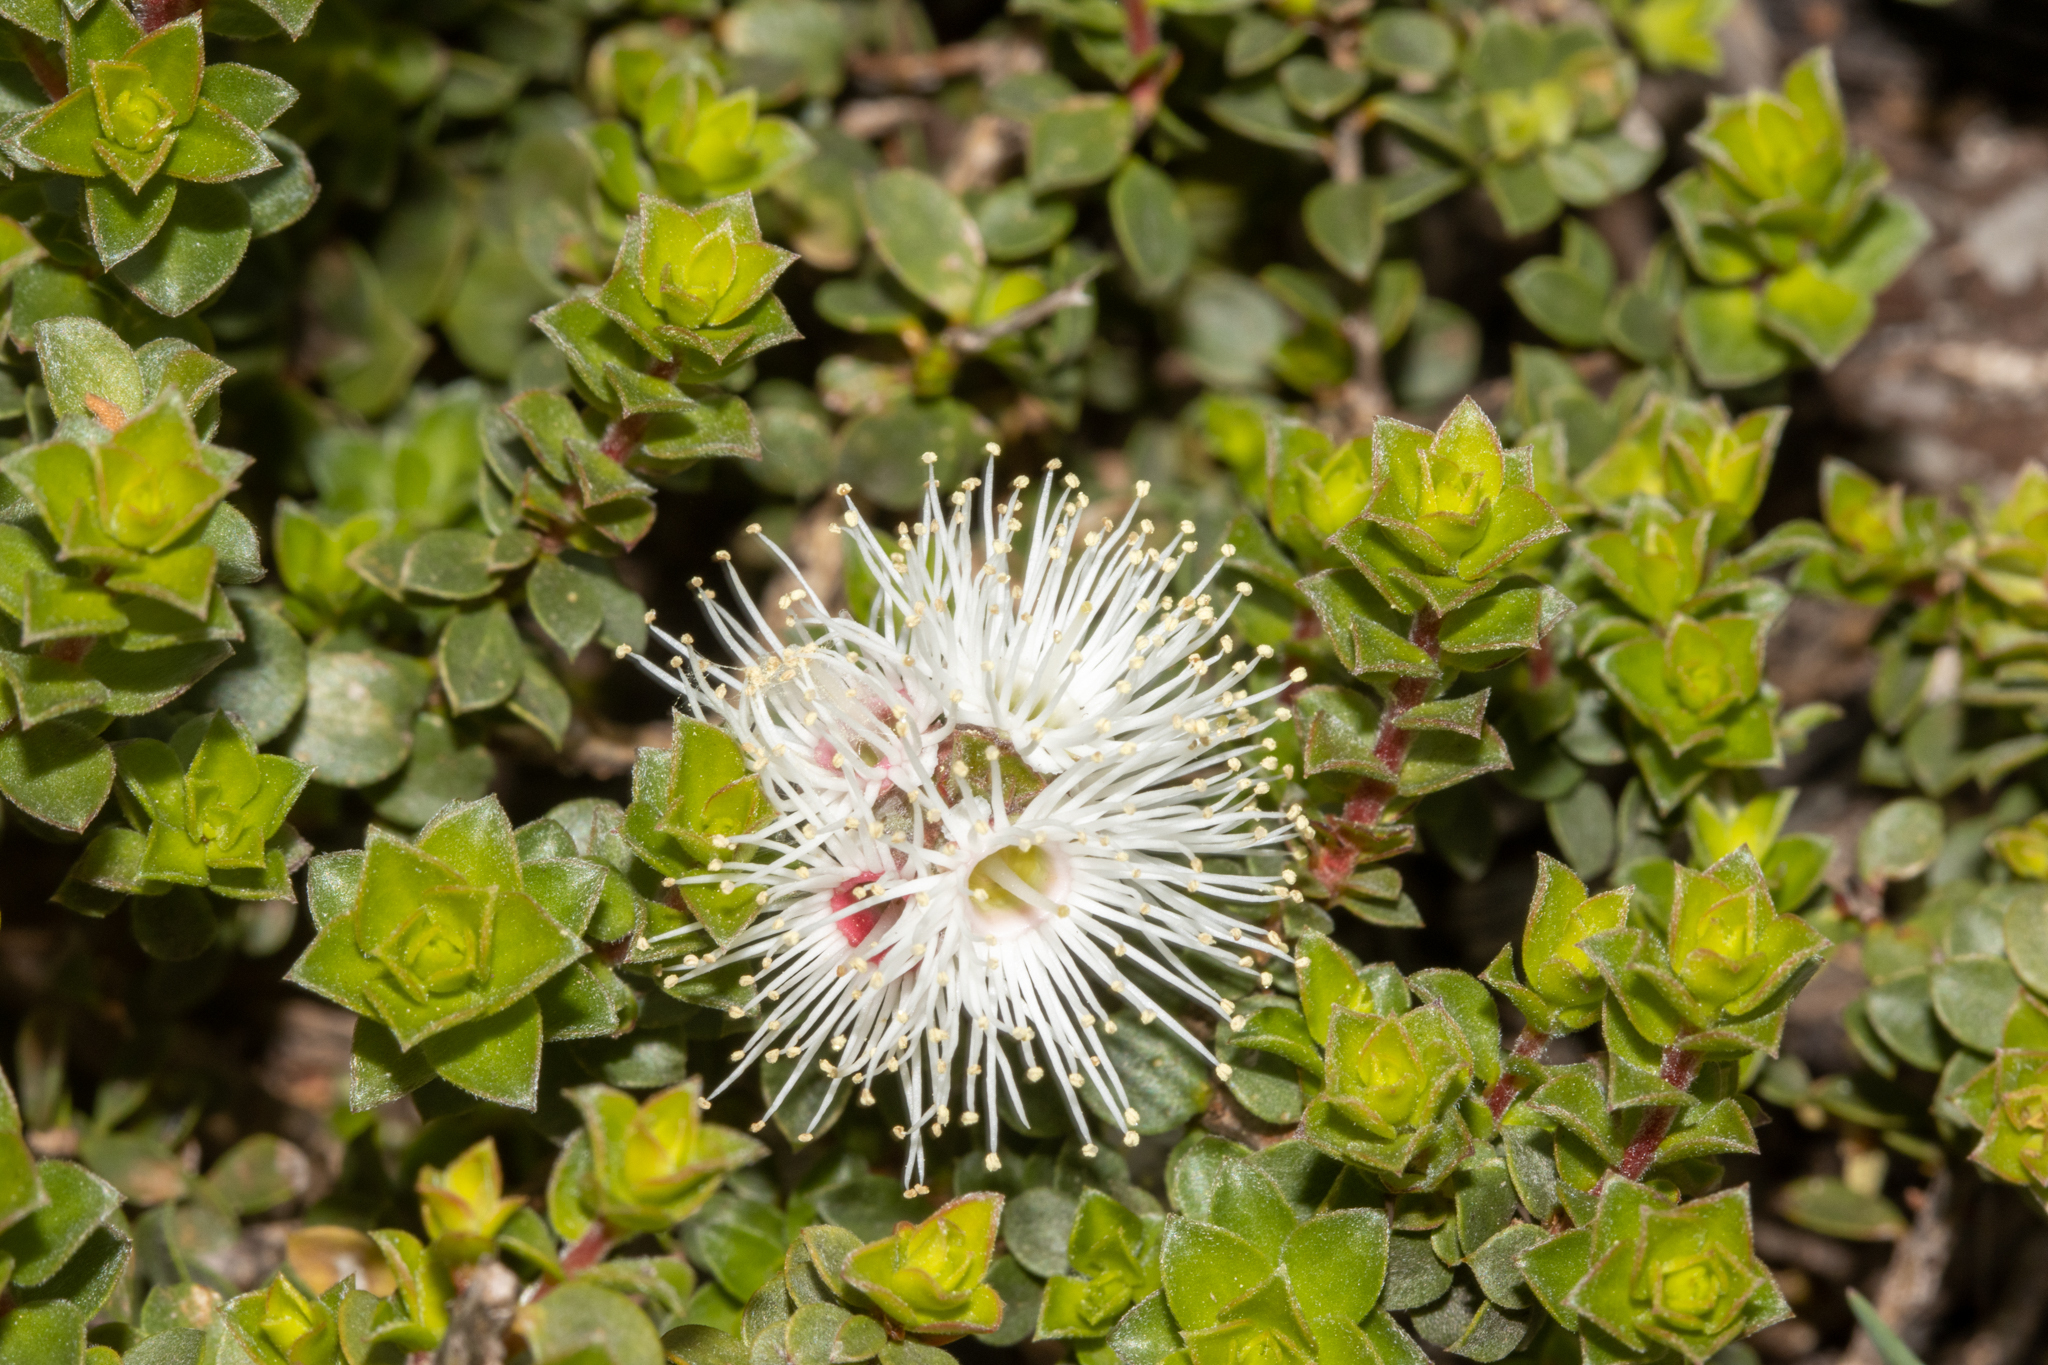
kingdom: Plantae
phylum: Tracheophyta
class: Magnoliopsida
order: Myrtales
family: Myrtaceae
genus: Kunzea
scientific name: Kunzea pomifera
